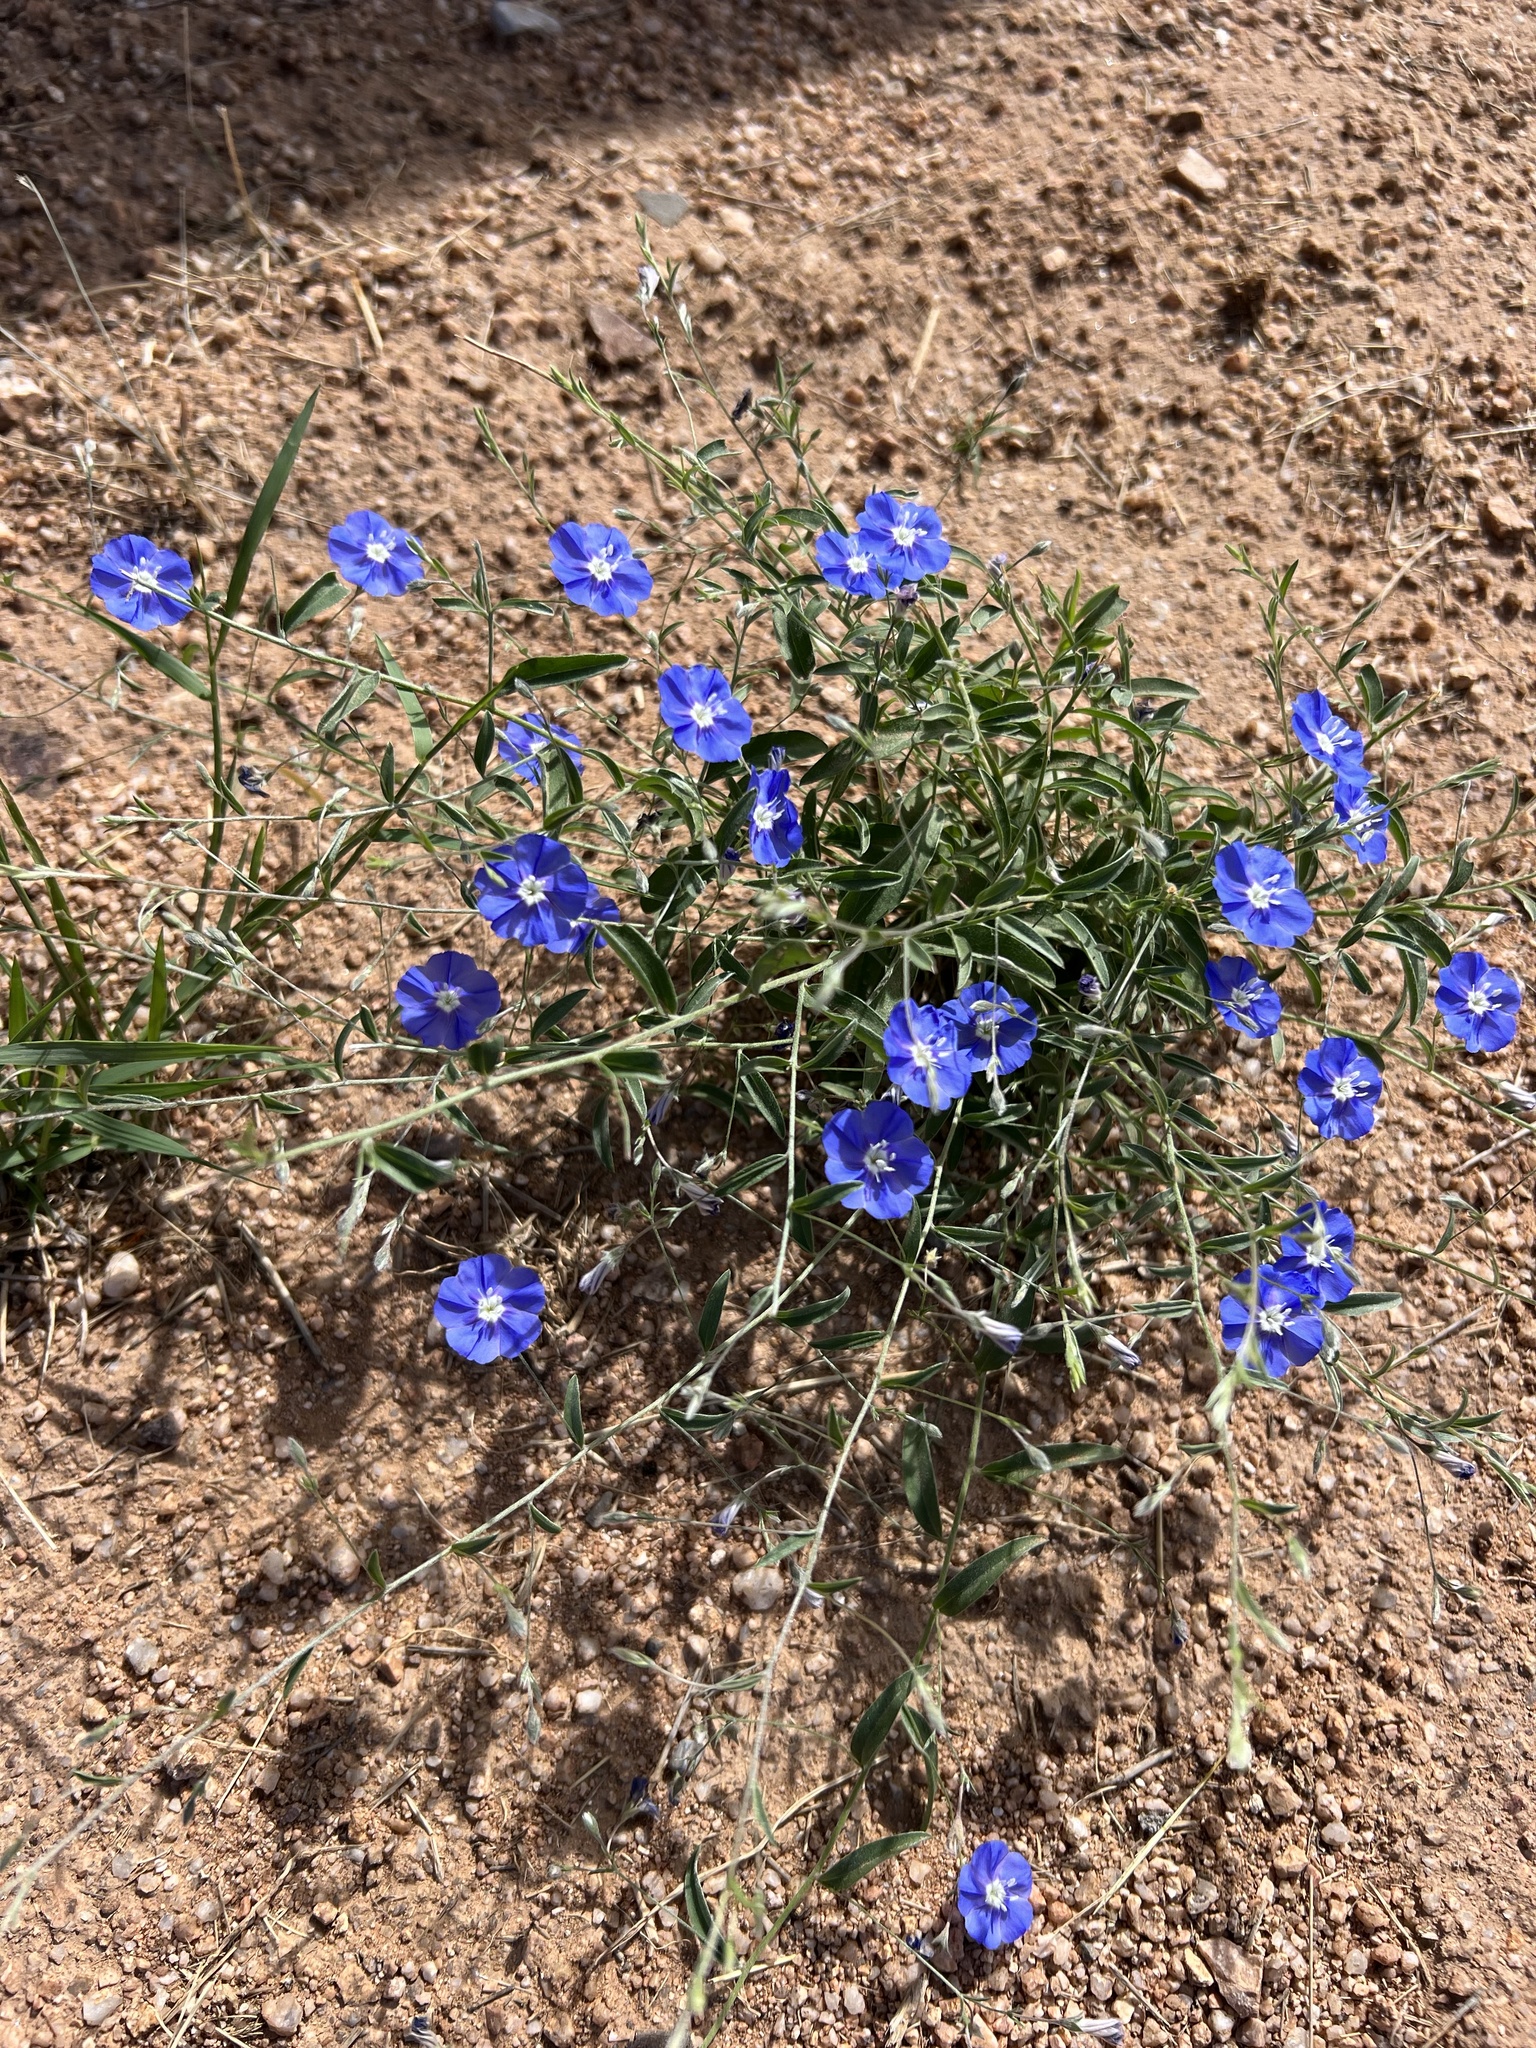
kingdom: Plantae
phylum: Tracheophyta
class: Magnoliopsida
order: Solanales
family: Convolvulaceae
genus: Evolvulus
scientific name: Evolvulus arizonicus
